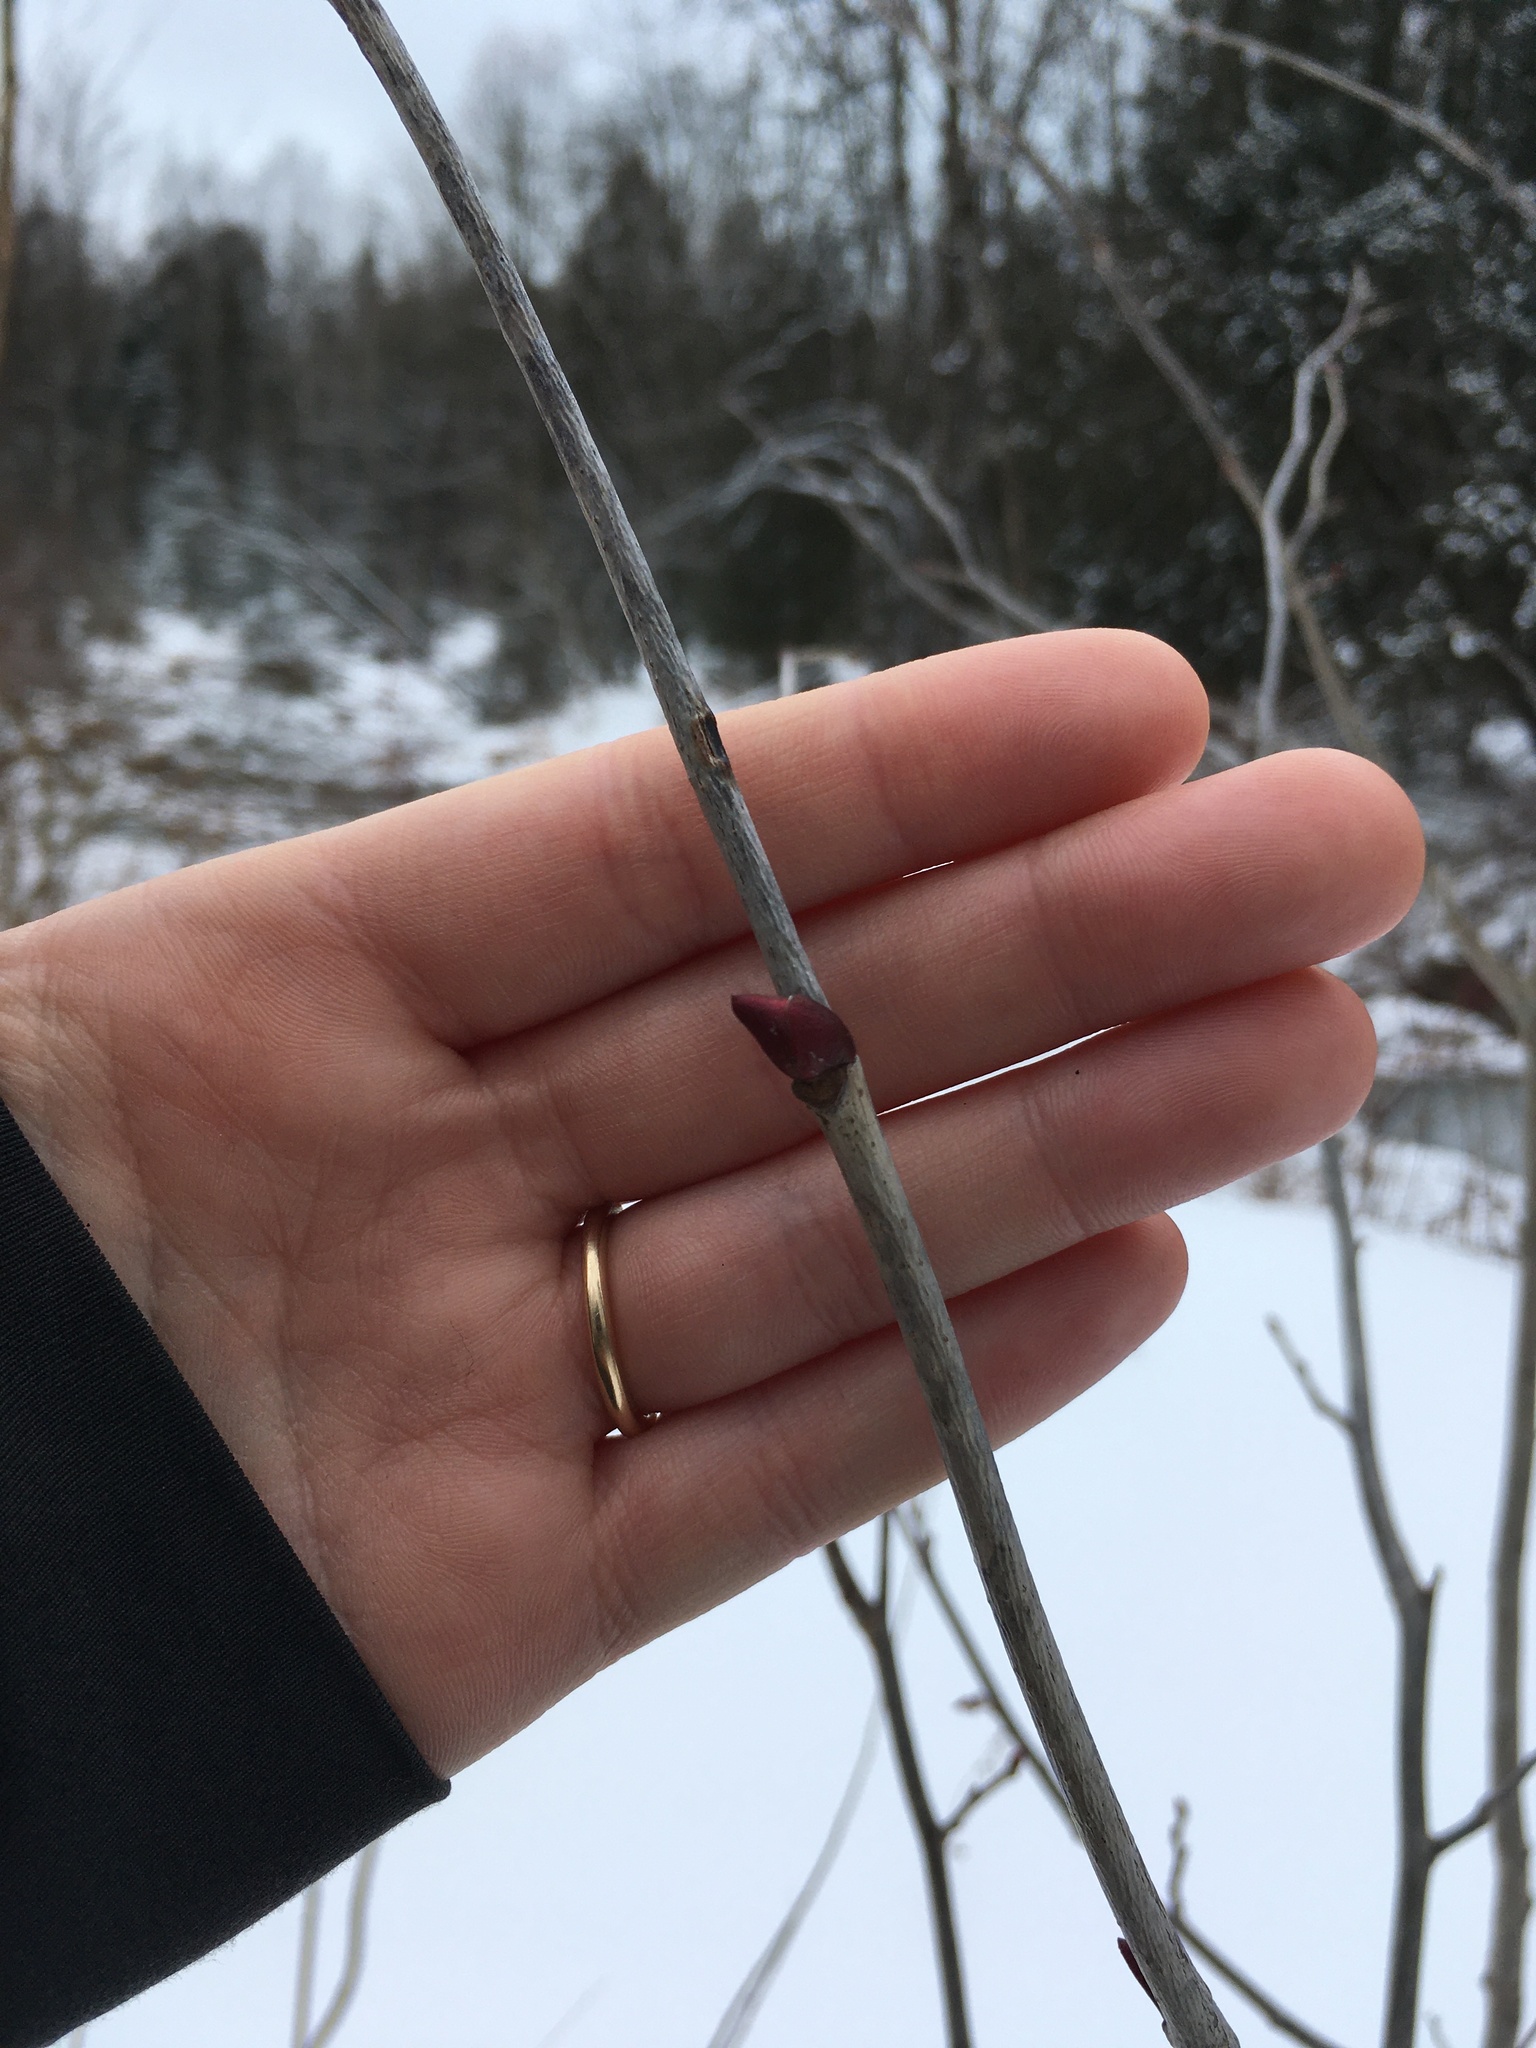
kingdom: Plantae
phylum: Tracheophyta
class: Magnoliopsida
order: Malvales
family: Malvaceae
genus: Tilia
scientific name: Tilia americana
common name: Basswood
